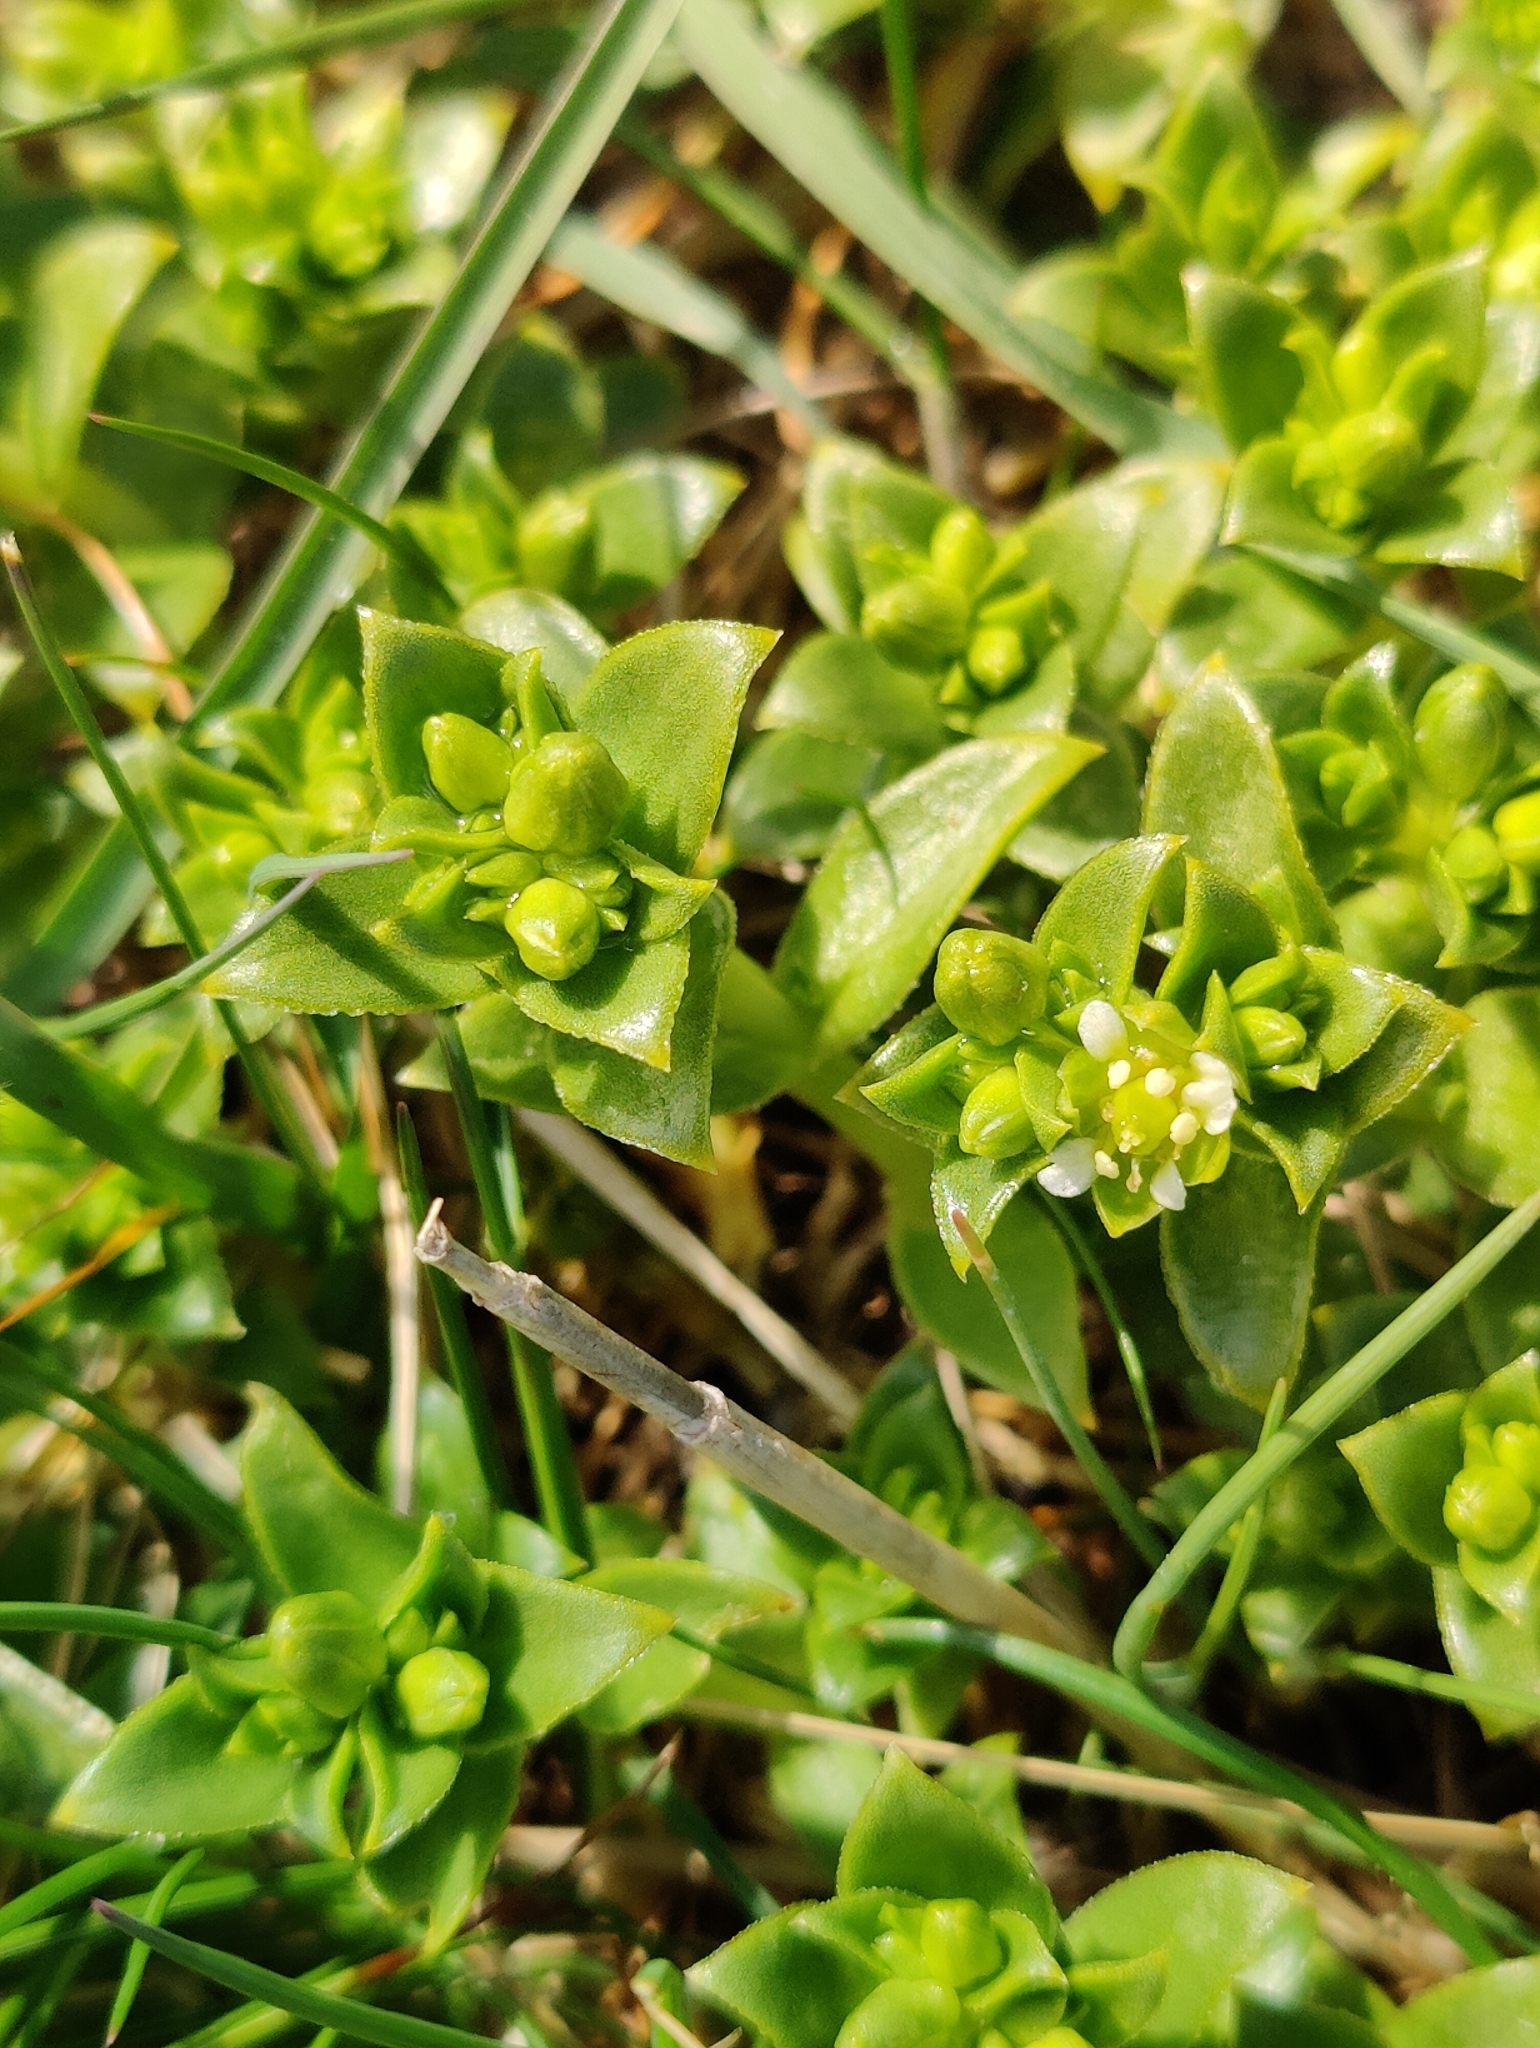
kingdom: Plantae
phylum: Tracheophyta
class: Magnoliopsida
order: Caryophyllales
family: Caryophyllaceae
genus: Honckenya
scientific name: Honckenya peploides
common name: Sea sandwort
